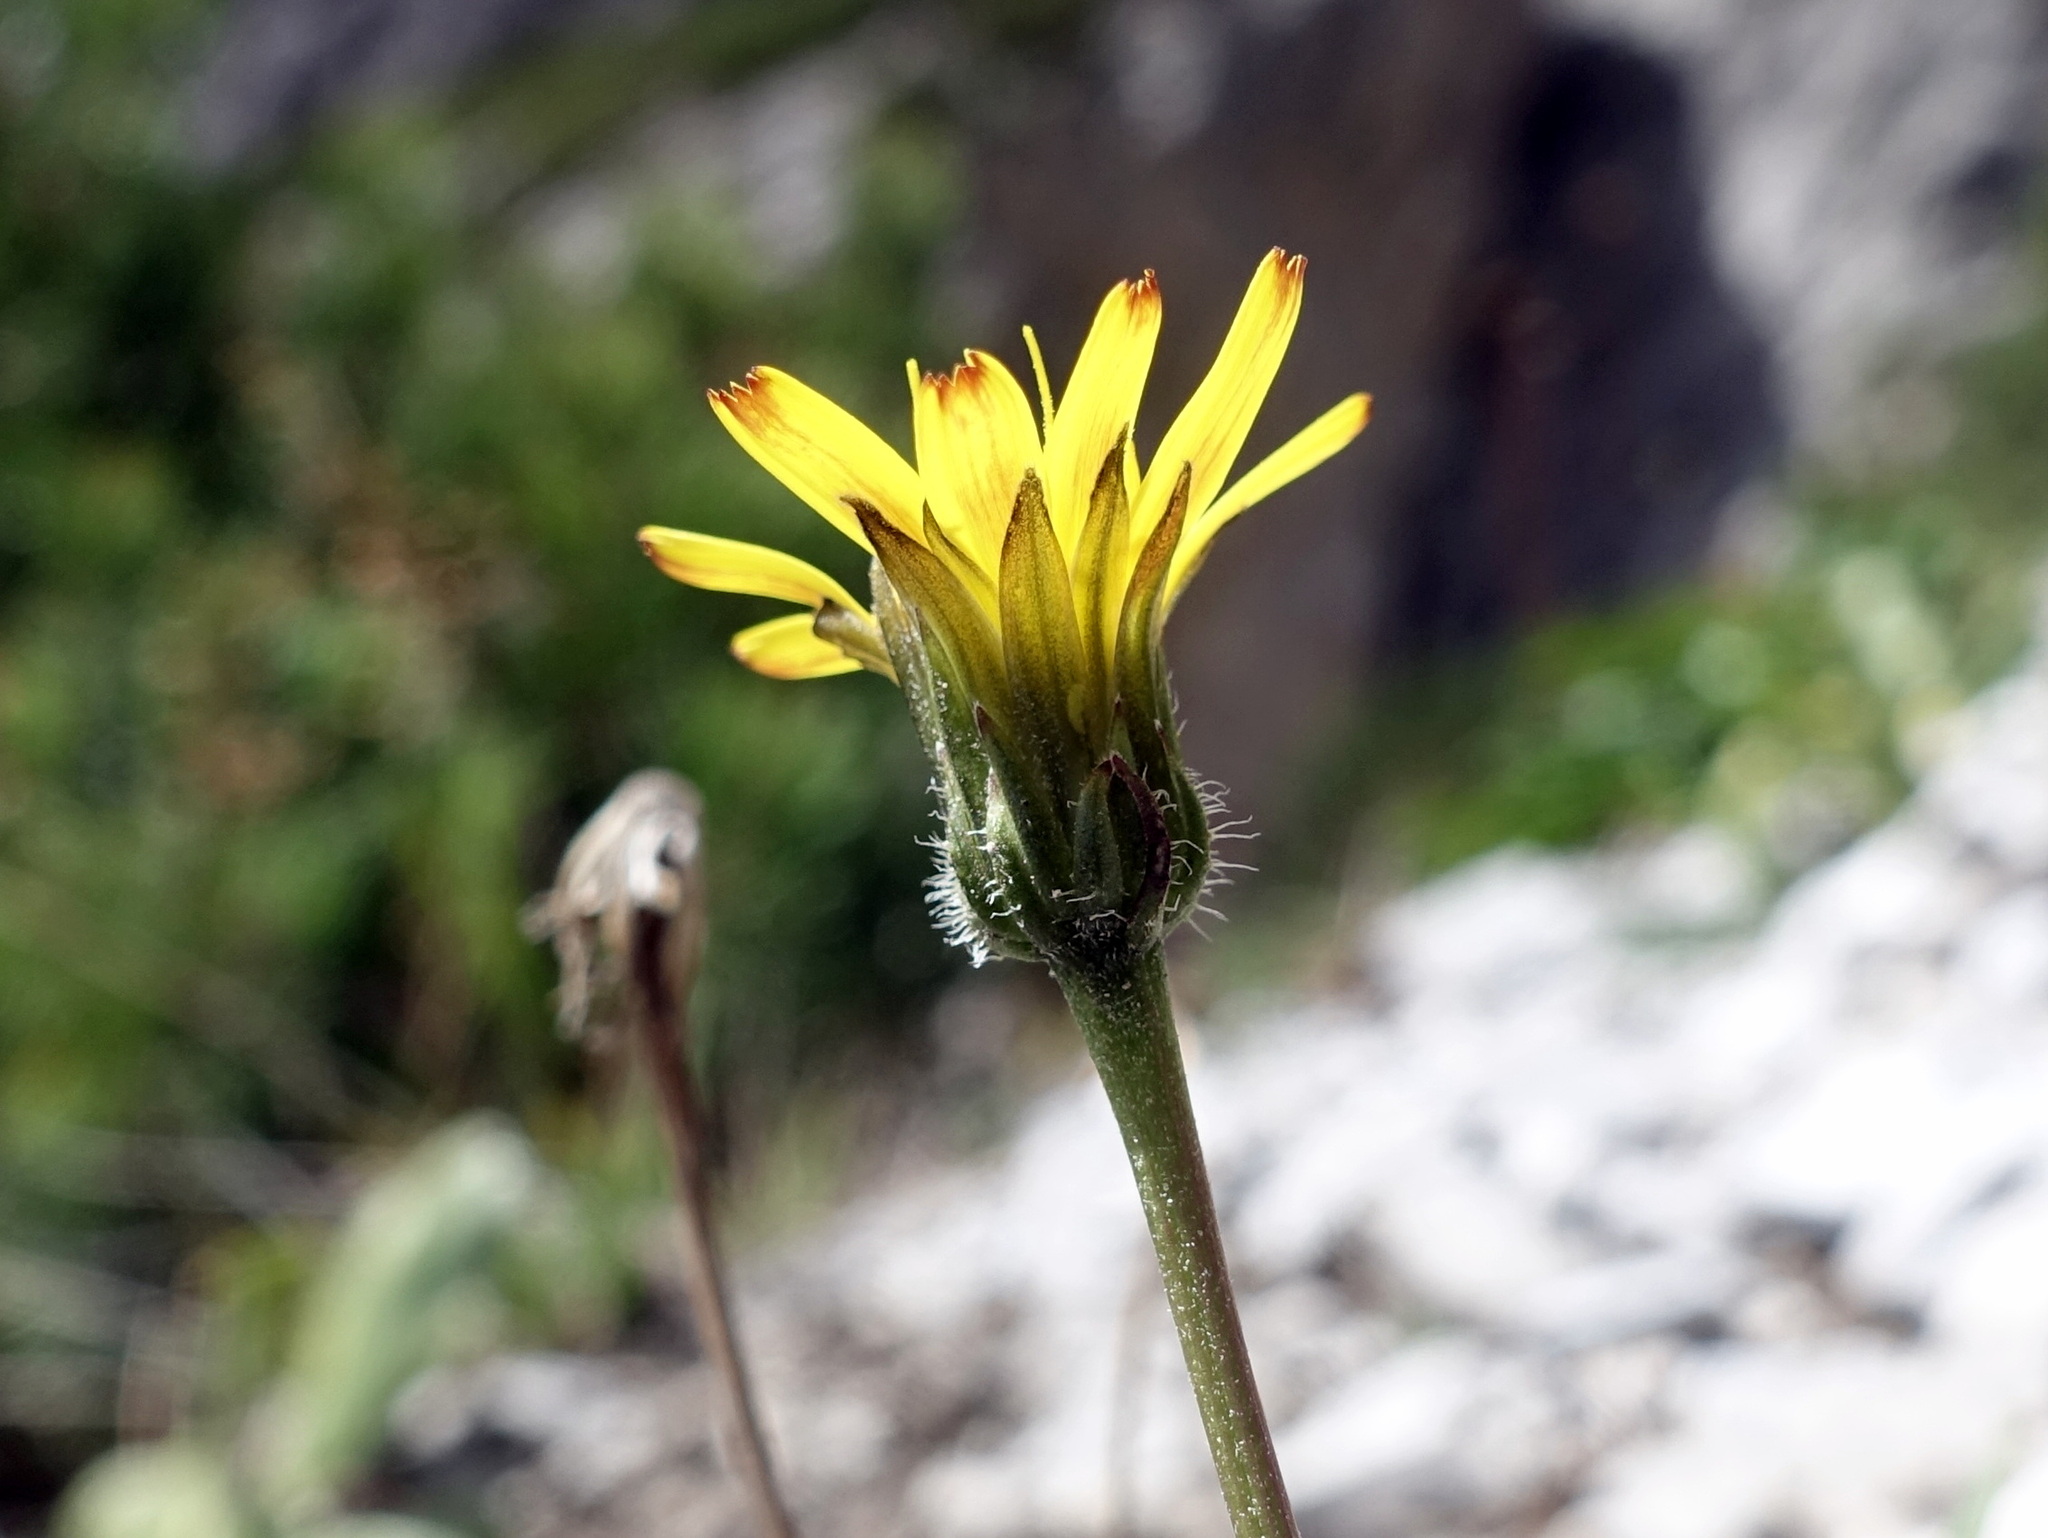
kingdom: Plantae
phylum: Tracheophyta
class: Magnoliopsida
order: Asterales
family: Asteraceae
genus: Leontodon
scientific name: Leontodon hispidus
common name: Rough hawkbit
